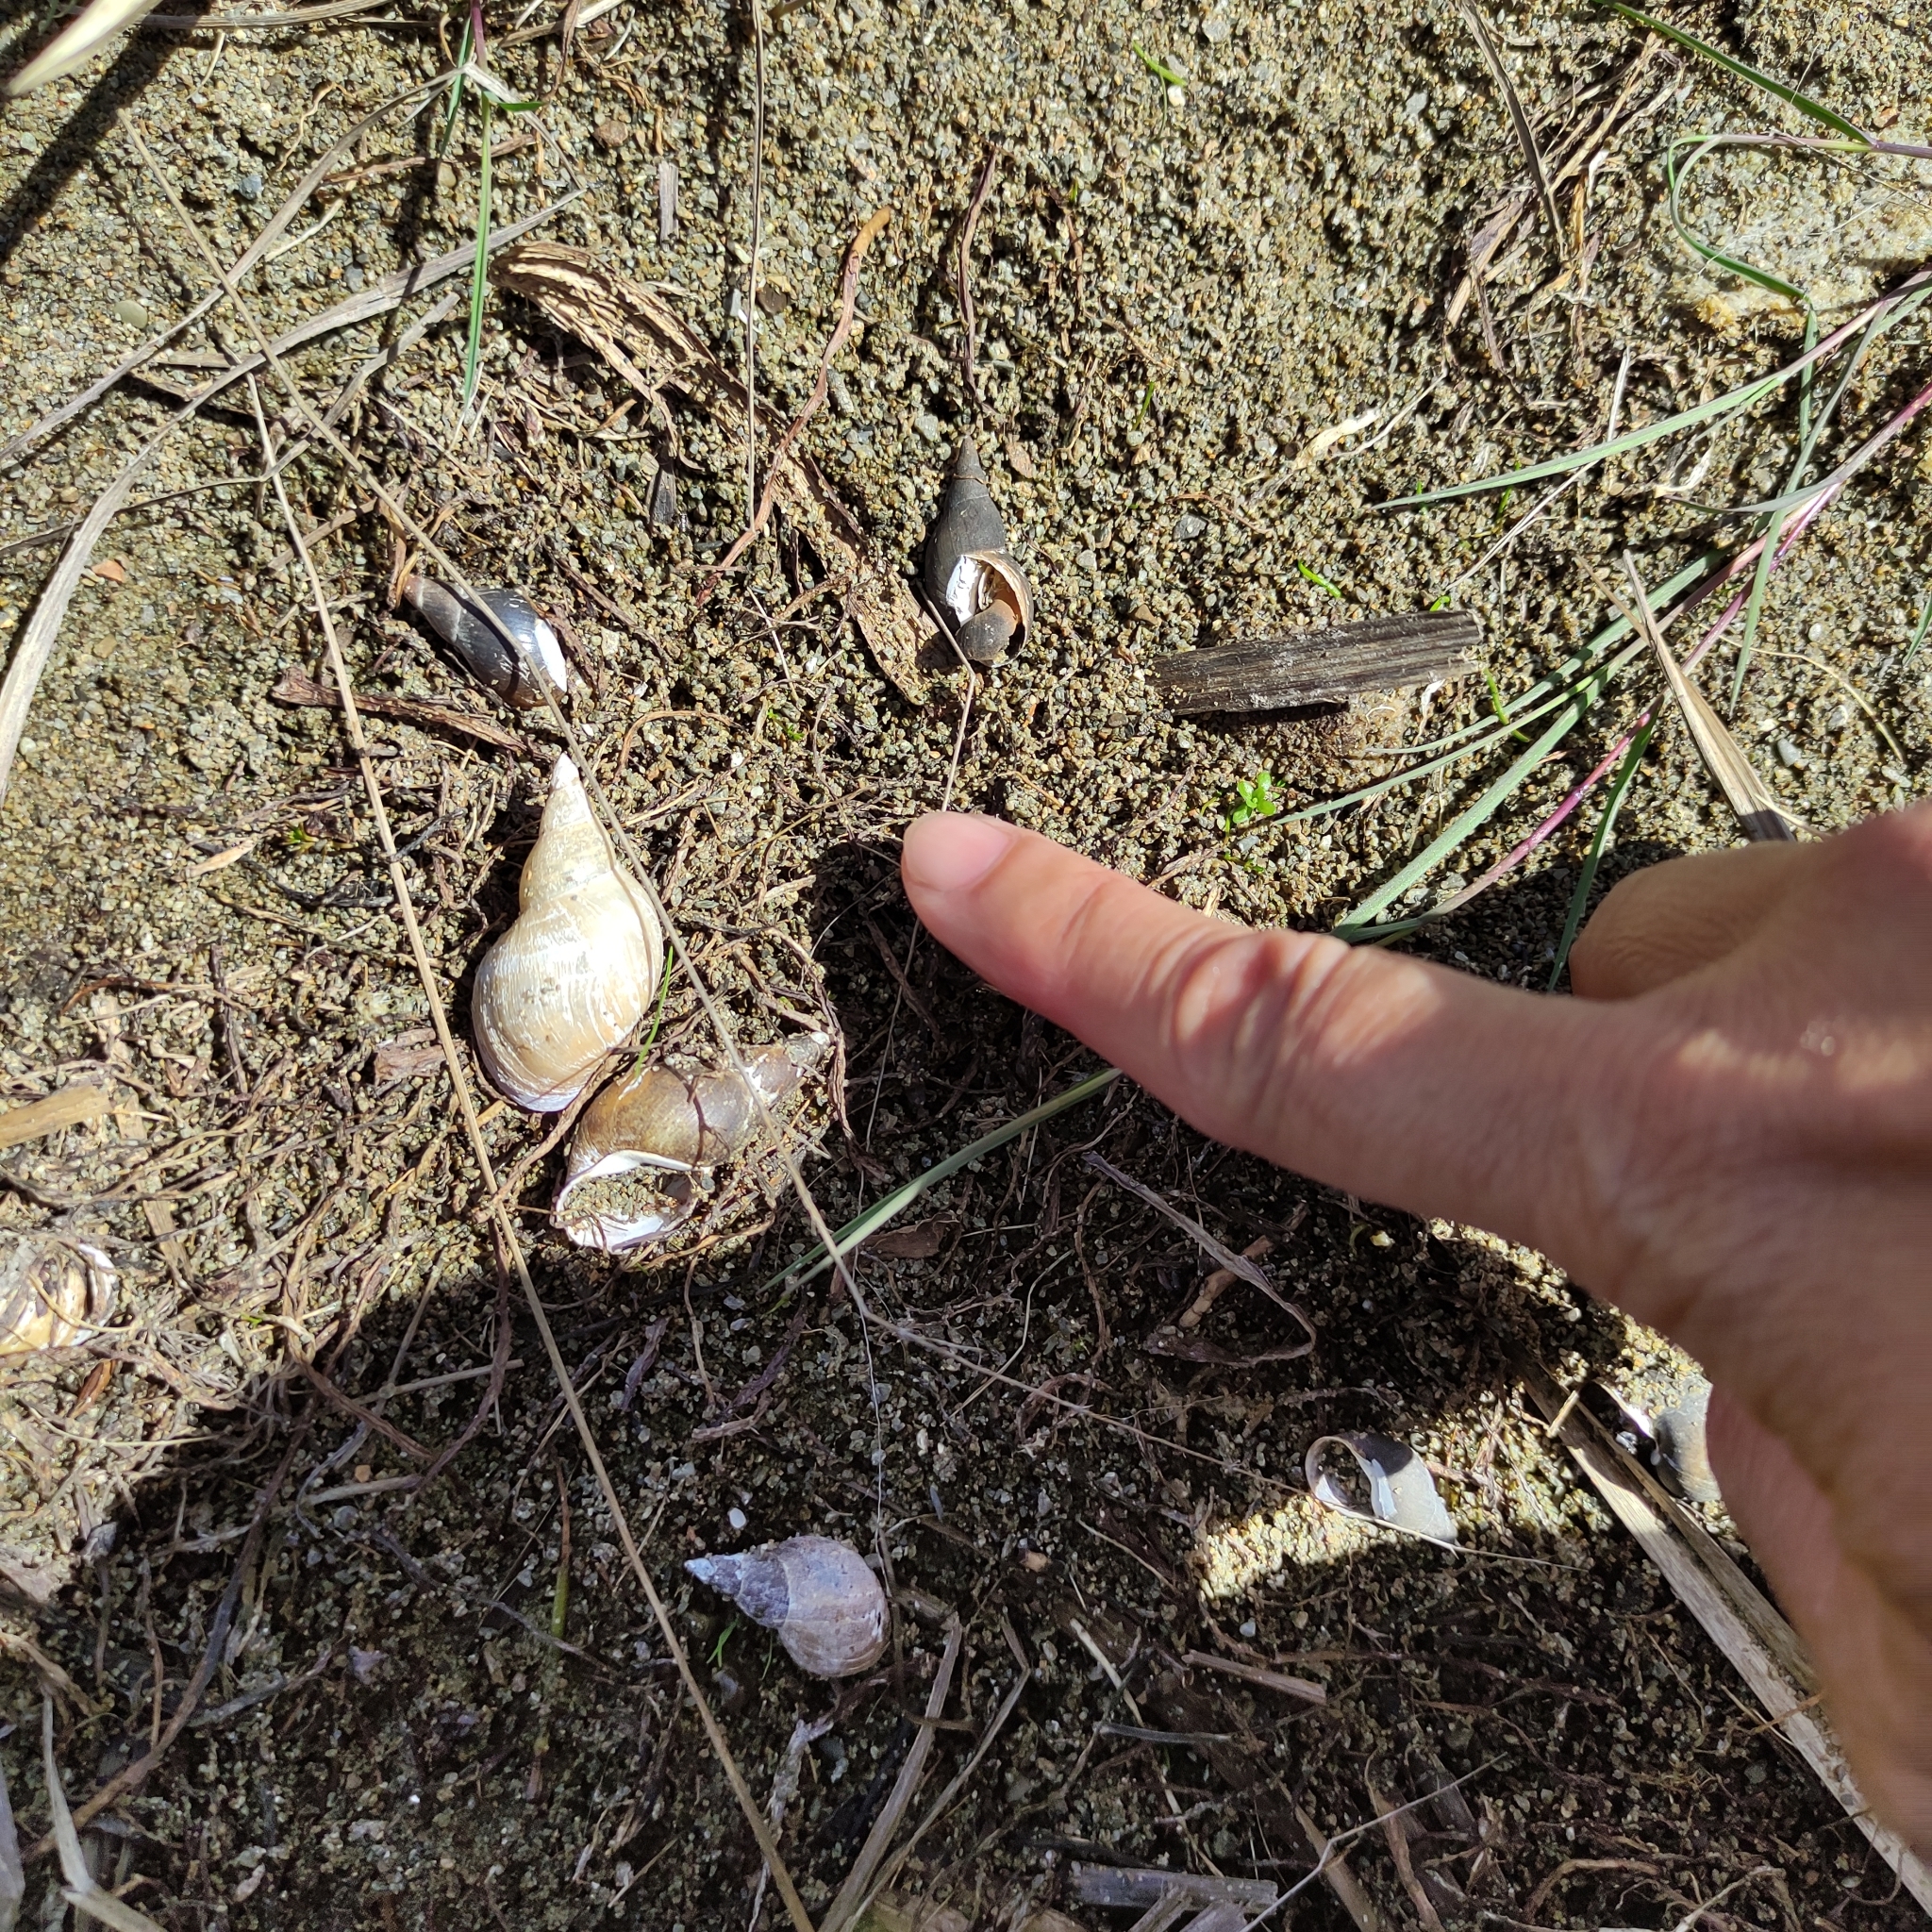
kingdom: Animalia
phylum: Mollusca
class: Gastropoda
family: Lymnaeidae
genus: Lymnaea
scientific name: Lymnaea stagnalis
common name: Great pond snail
